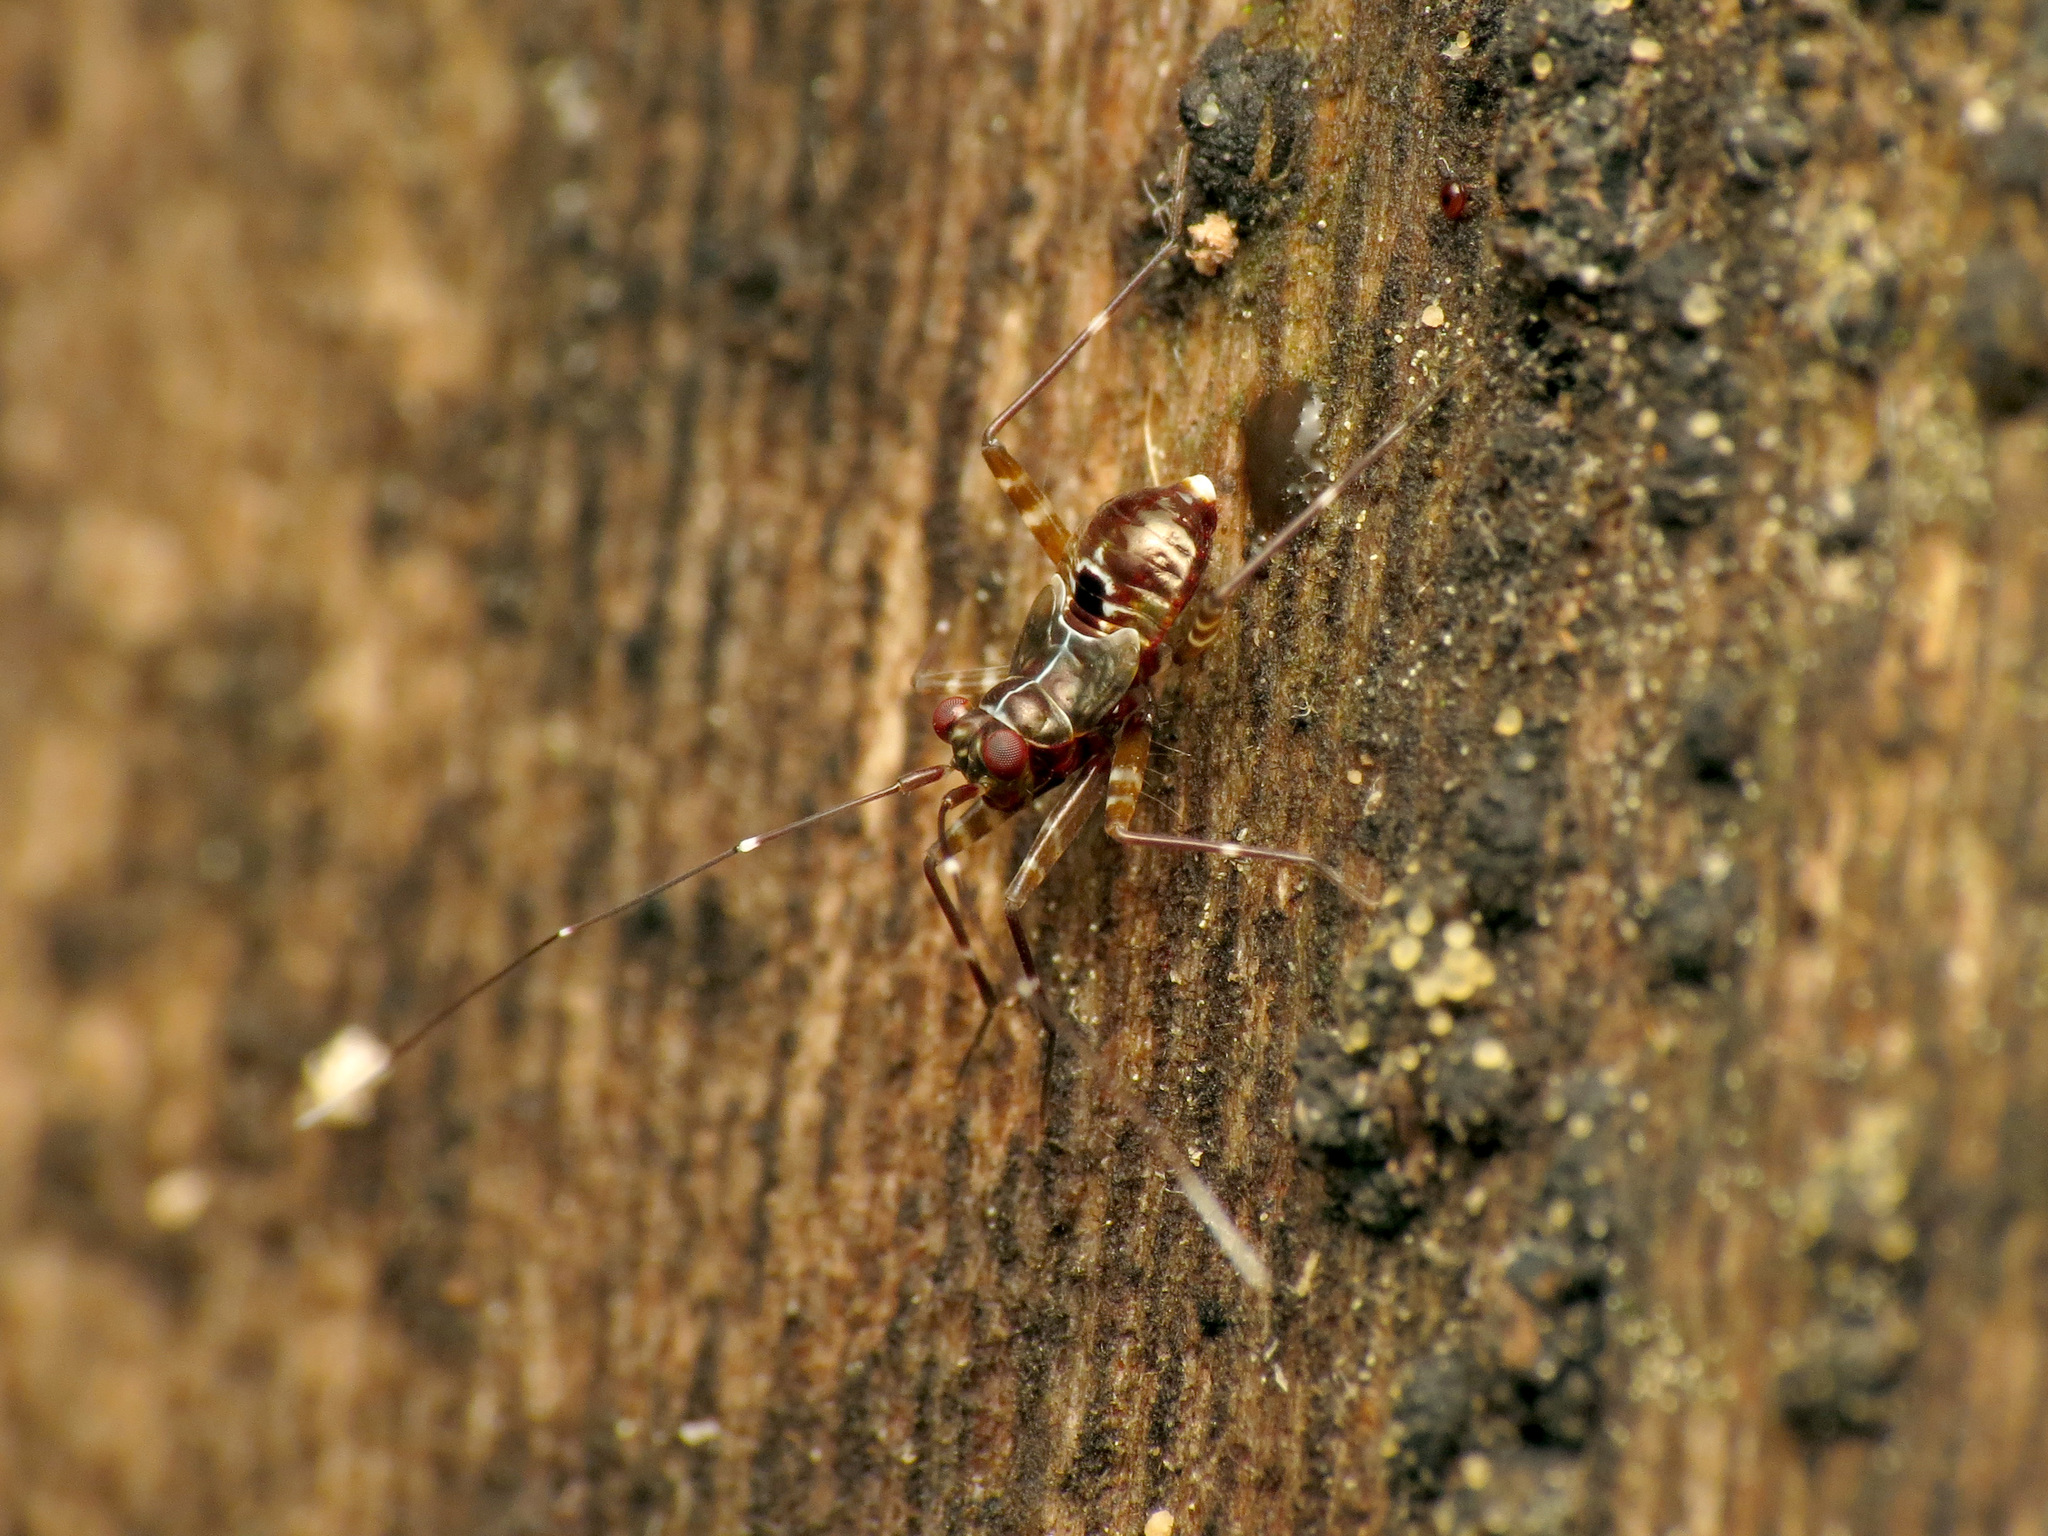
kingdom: Animalia
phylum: Arthropoda
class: Insecta
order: Hemiptera
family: Miridae
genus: Cylapus
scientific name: Cylapus tenuicornis
